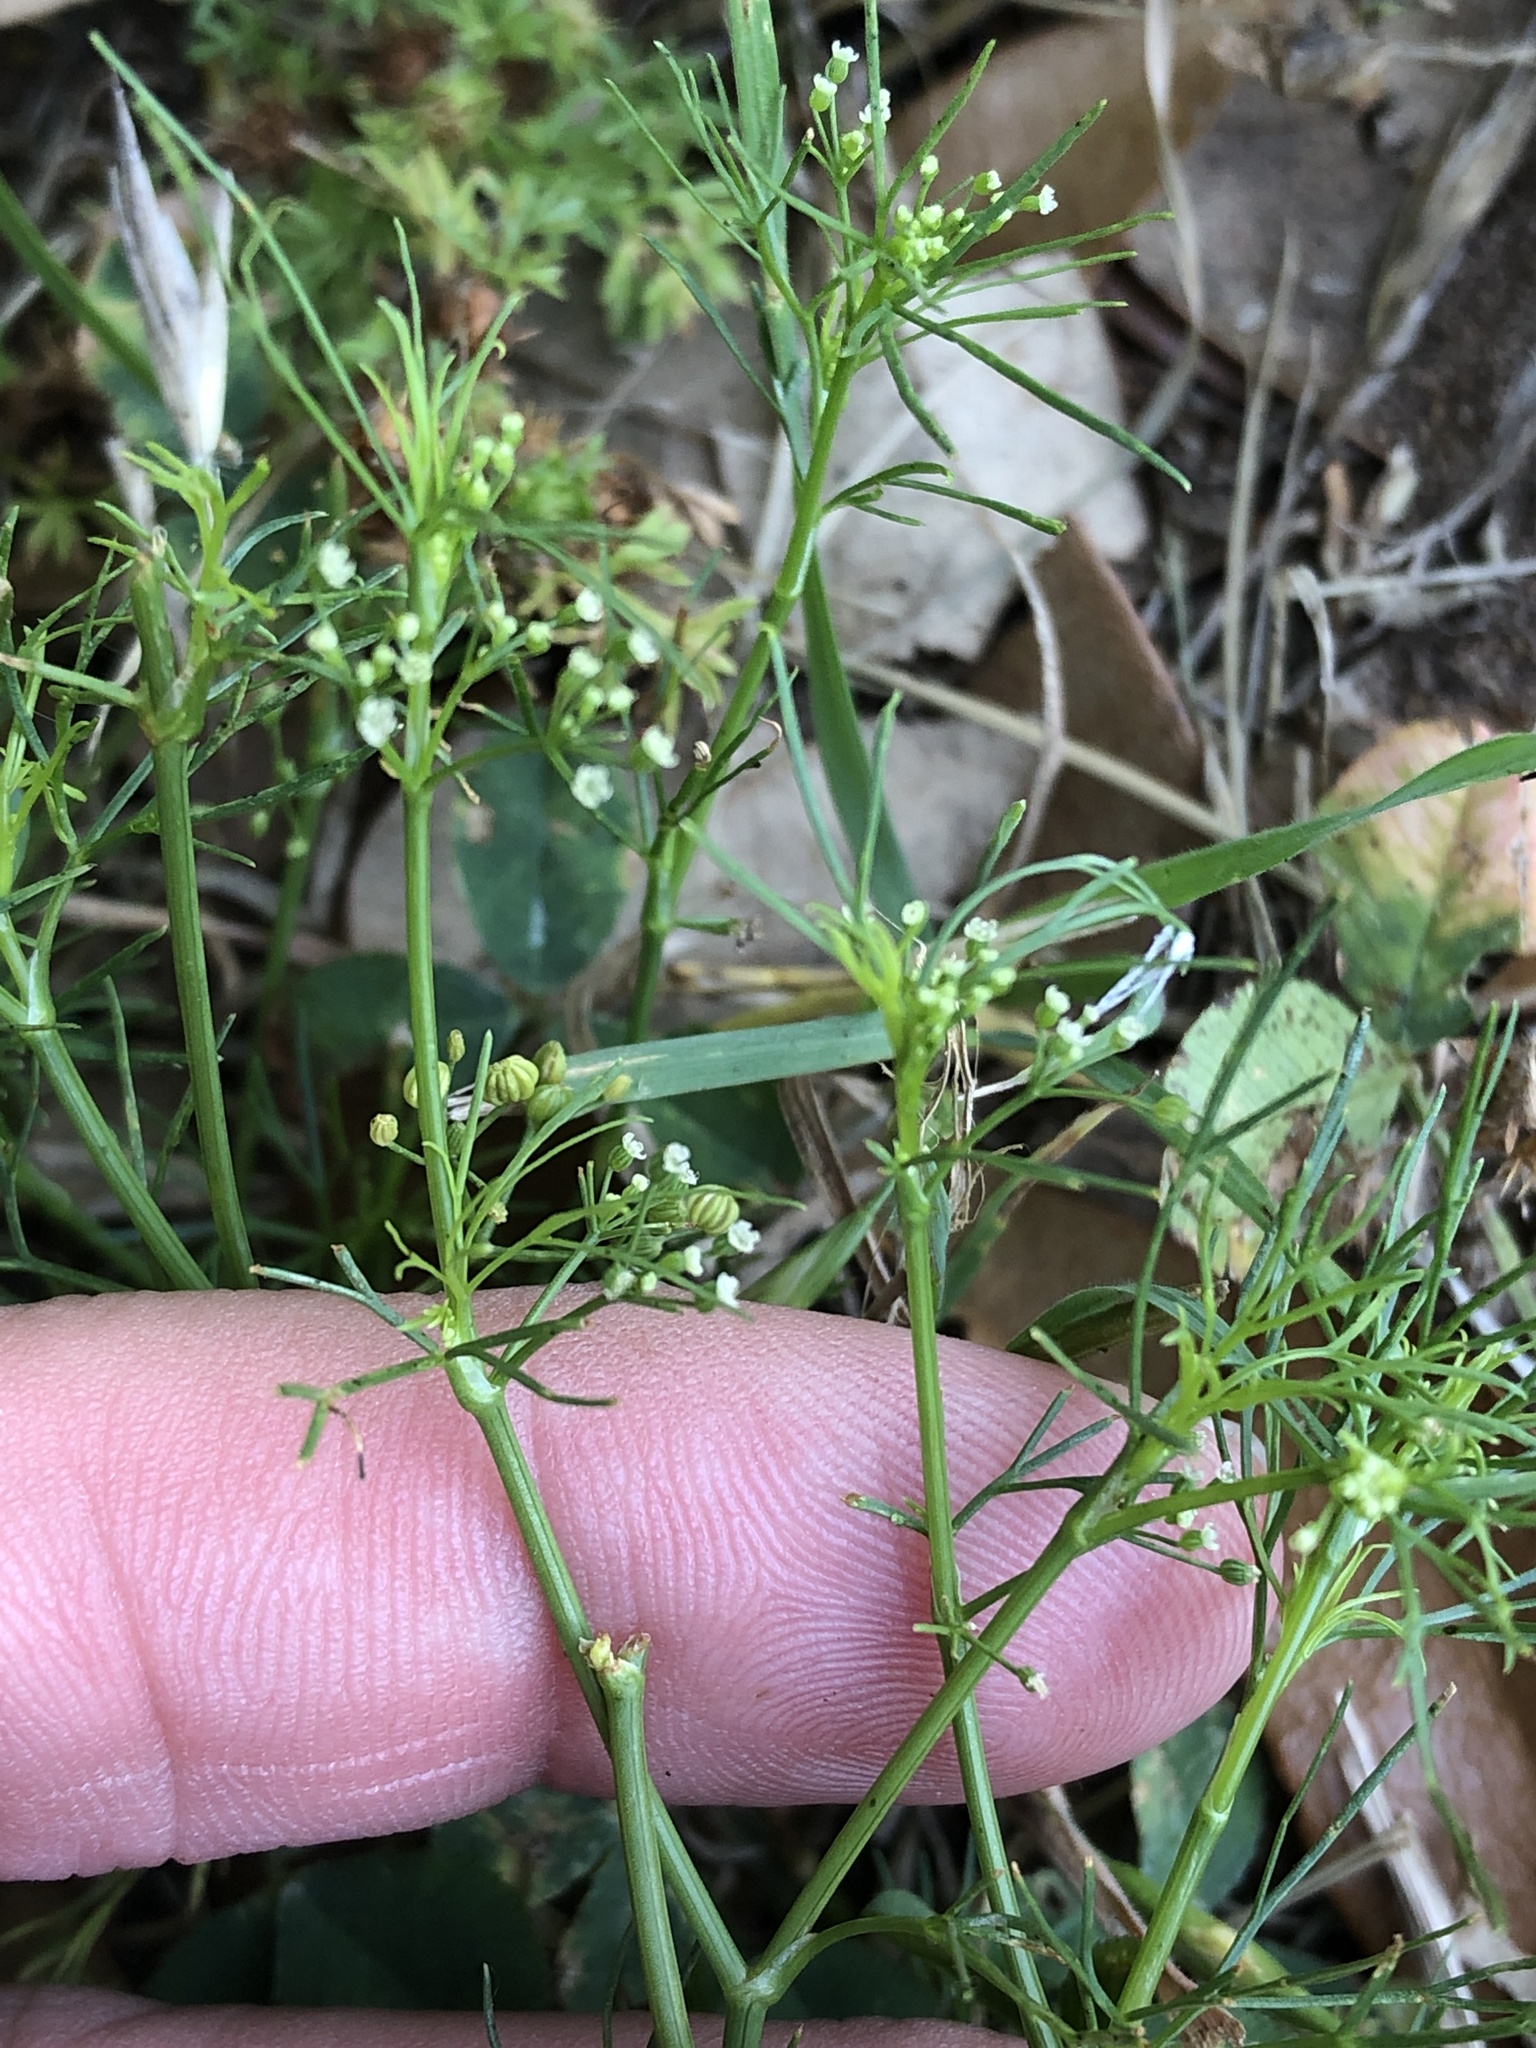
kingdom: Plantae
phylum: Tracheophyta
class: Magnoliopsida
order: Apiales
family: Apiaceae
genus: Cyclospermum
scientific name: Cyclospermum leptophyllum
